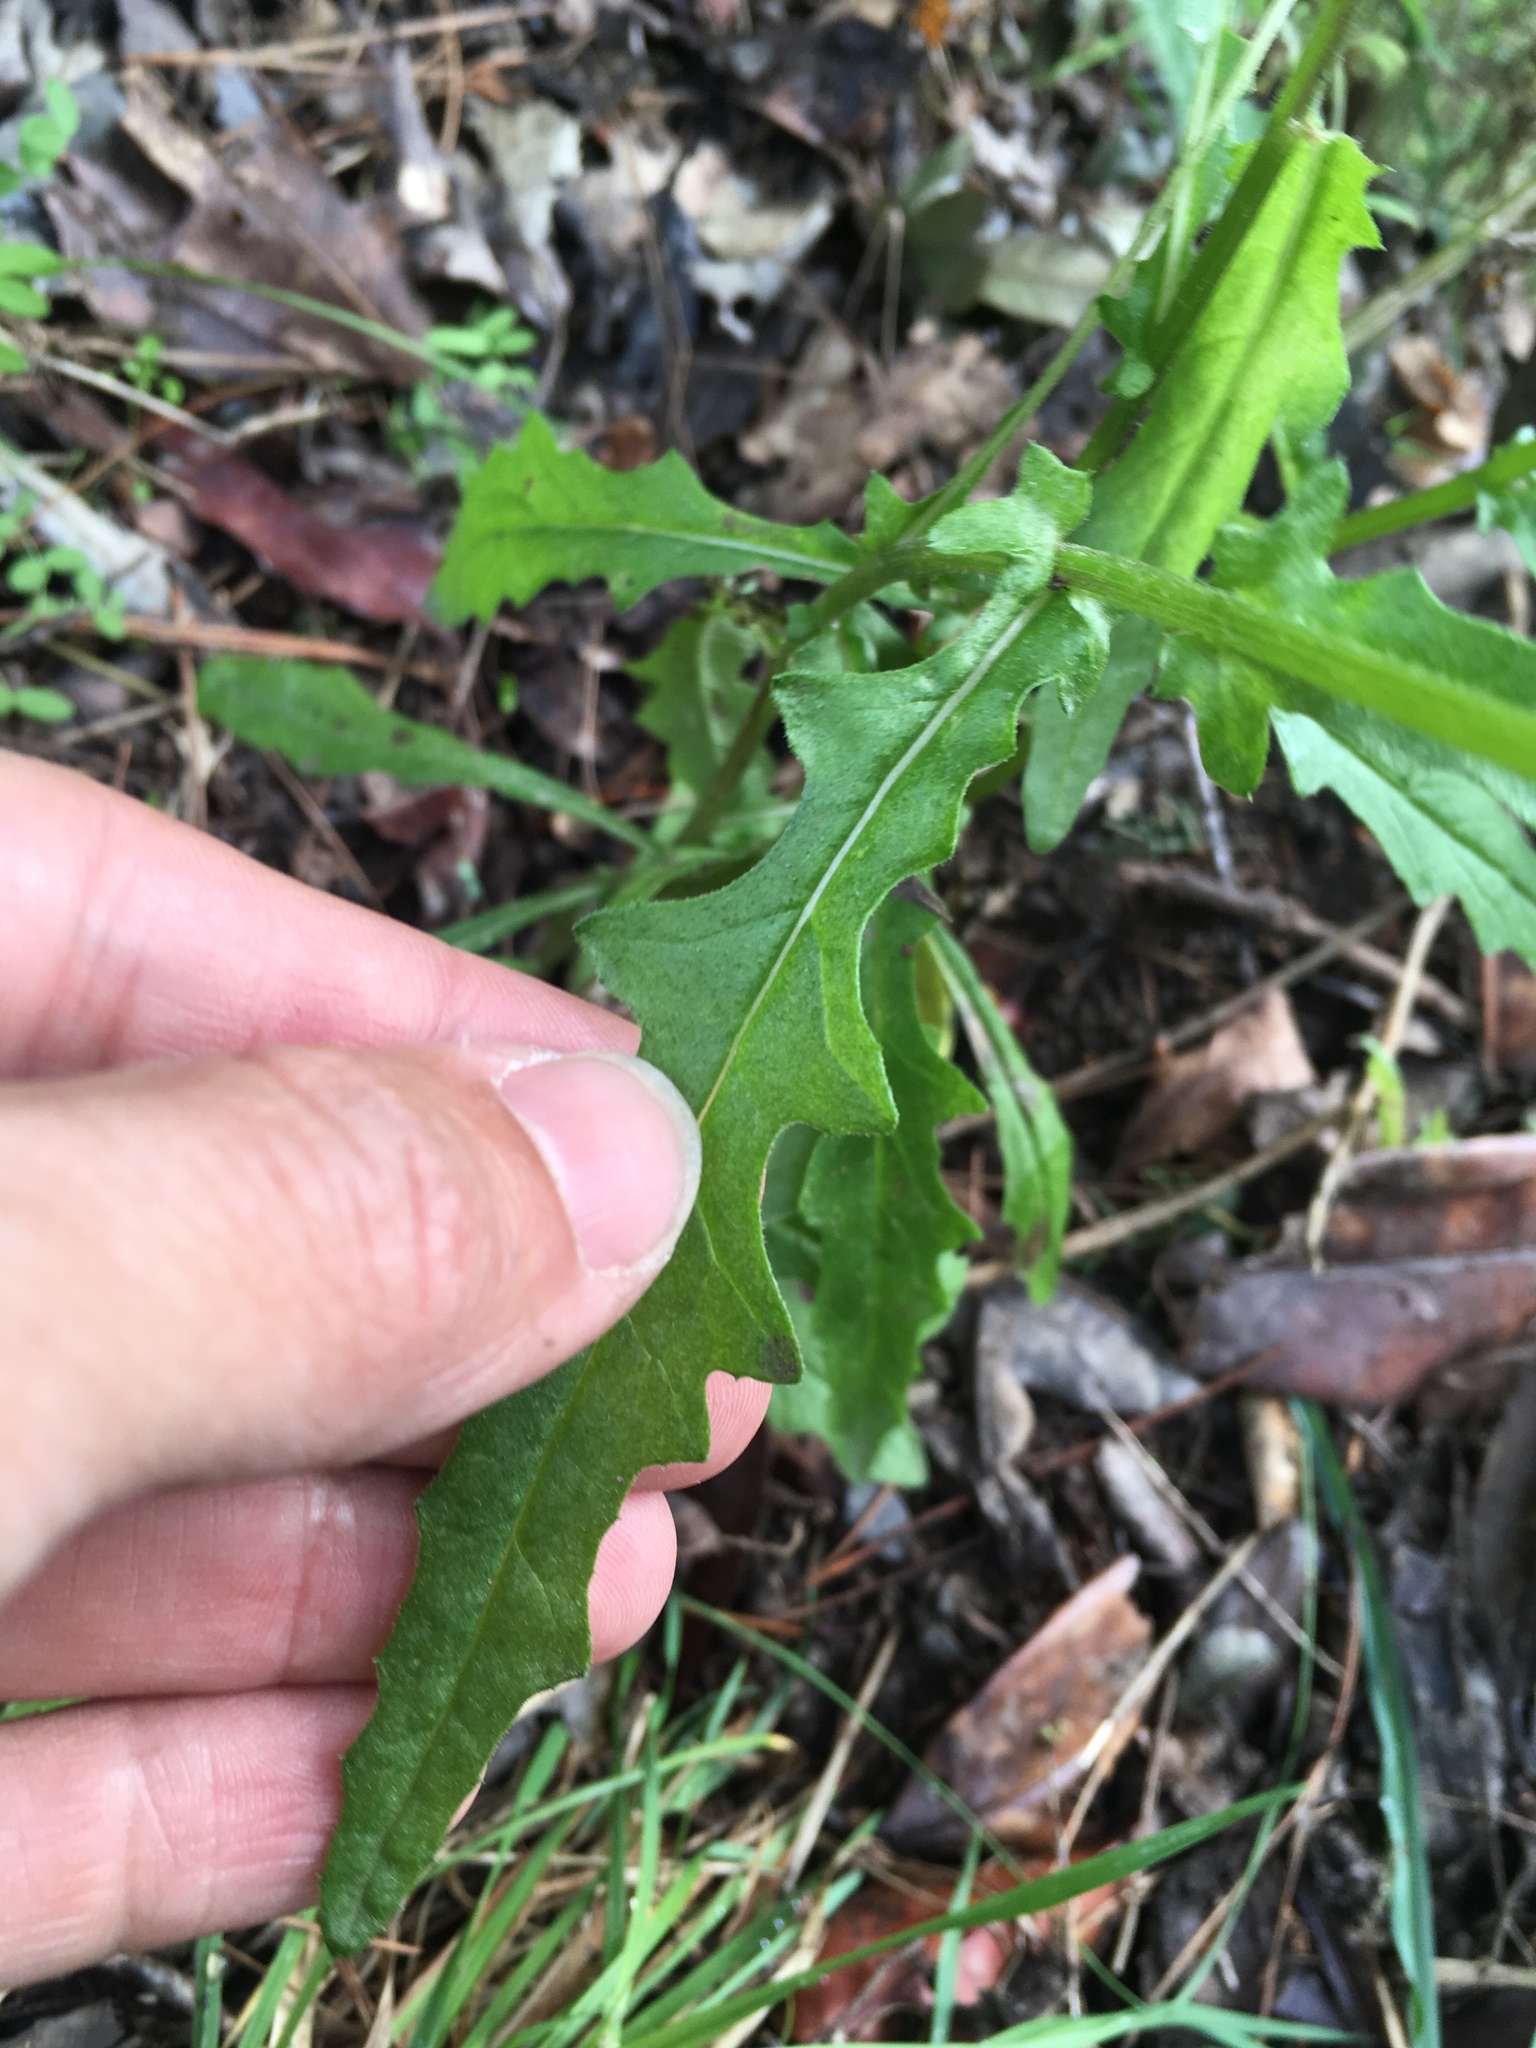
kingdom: Plantae
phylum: Tracheophyta
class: Magnoliopsida
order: Asterales
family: Asteraceae
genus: Senecio
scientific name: Senecio hispidulus
